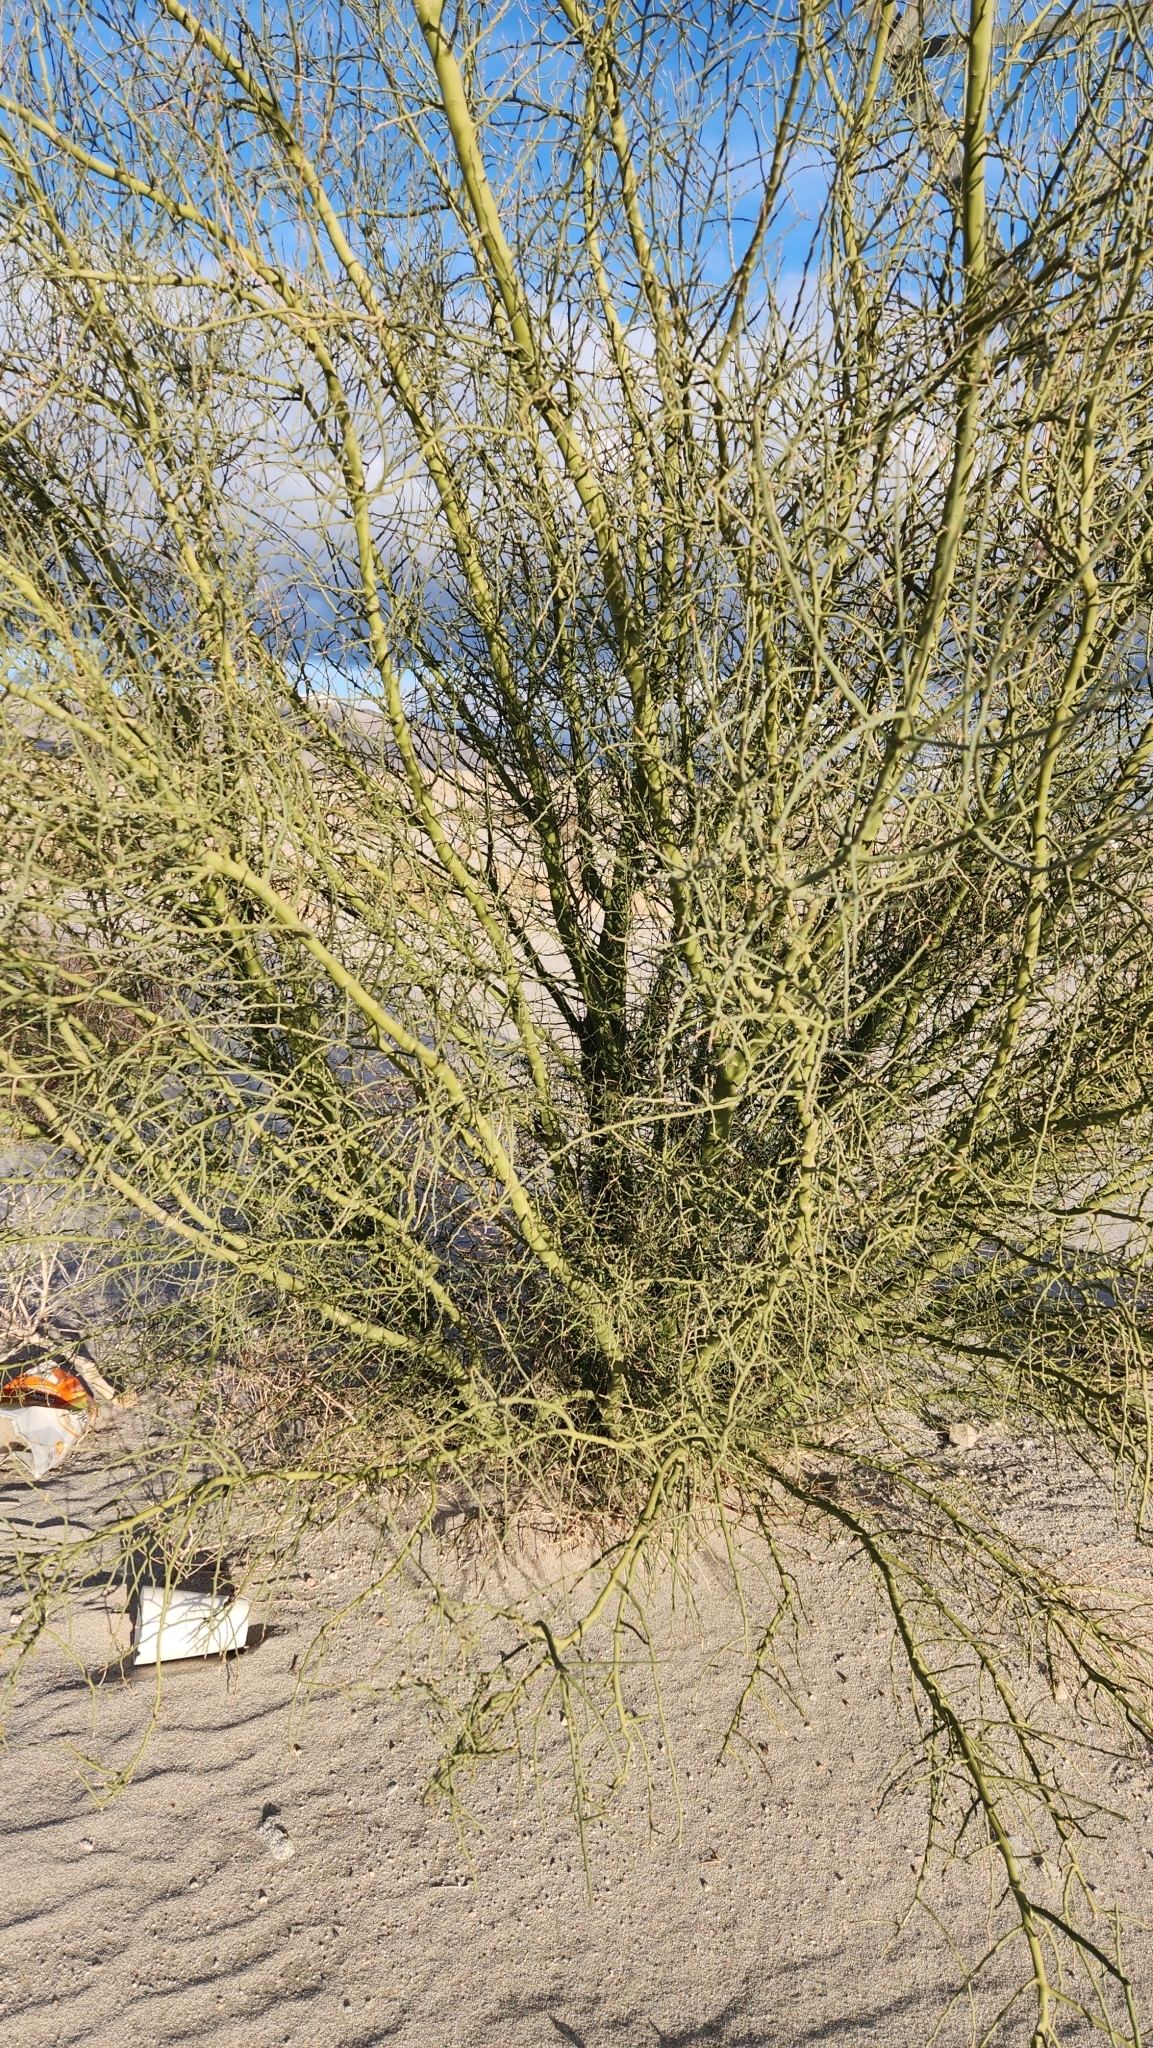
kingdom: Plantae
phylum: Tracheophyta
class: Magnoliopsida
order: Fabales
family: Fabaceae
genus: Parkinsonia
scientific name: Parkinsonia florida
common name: Blue paloverde
